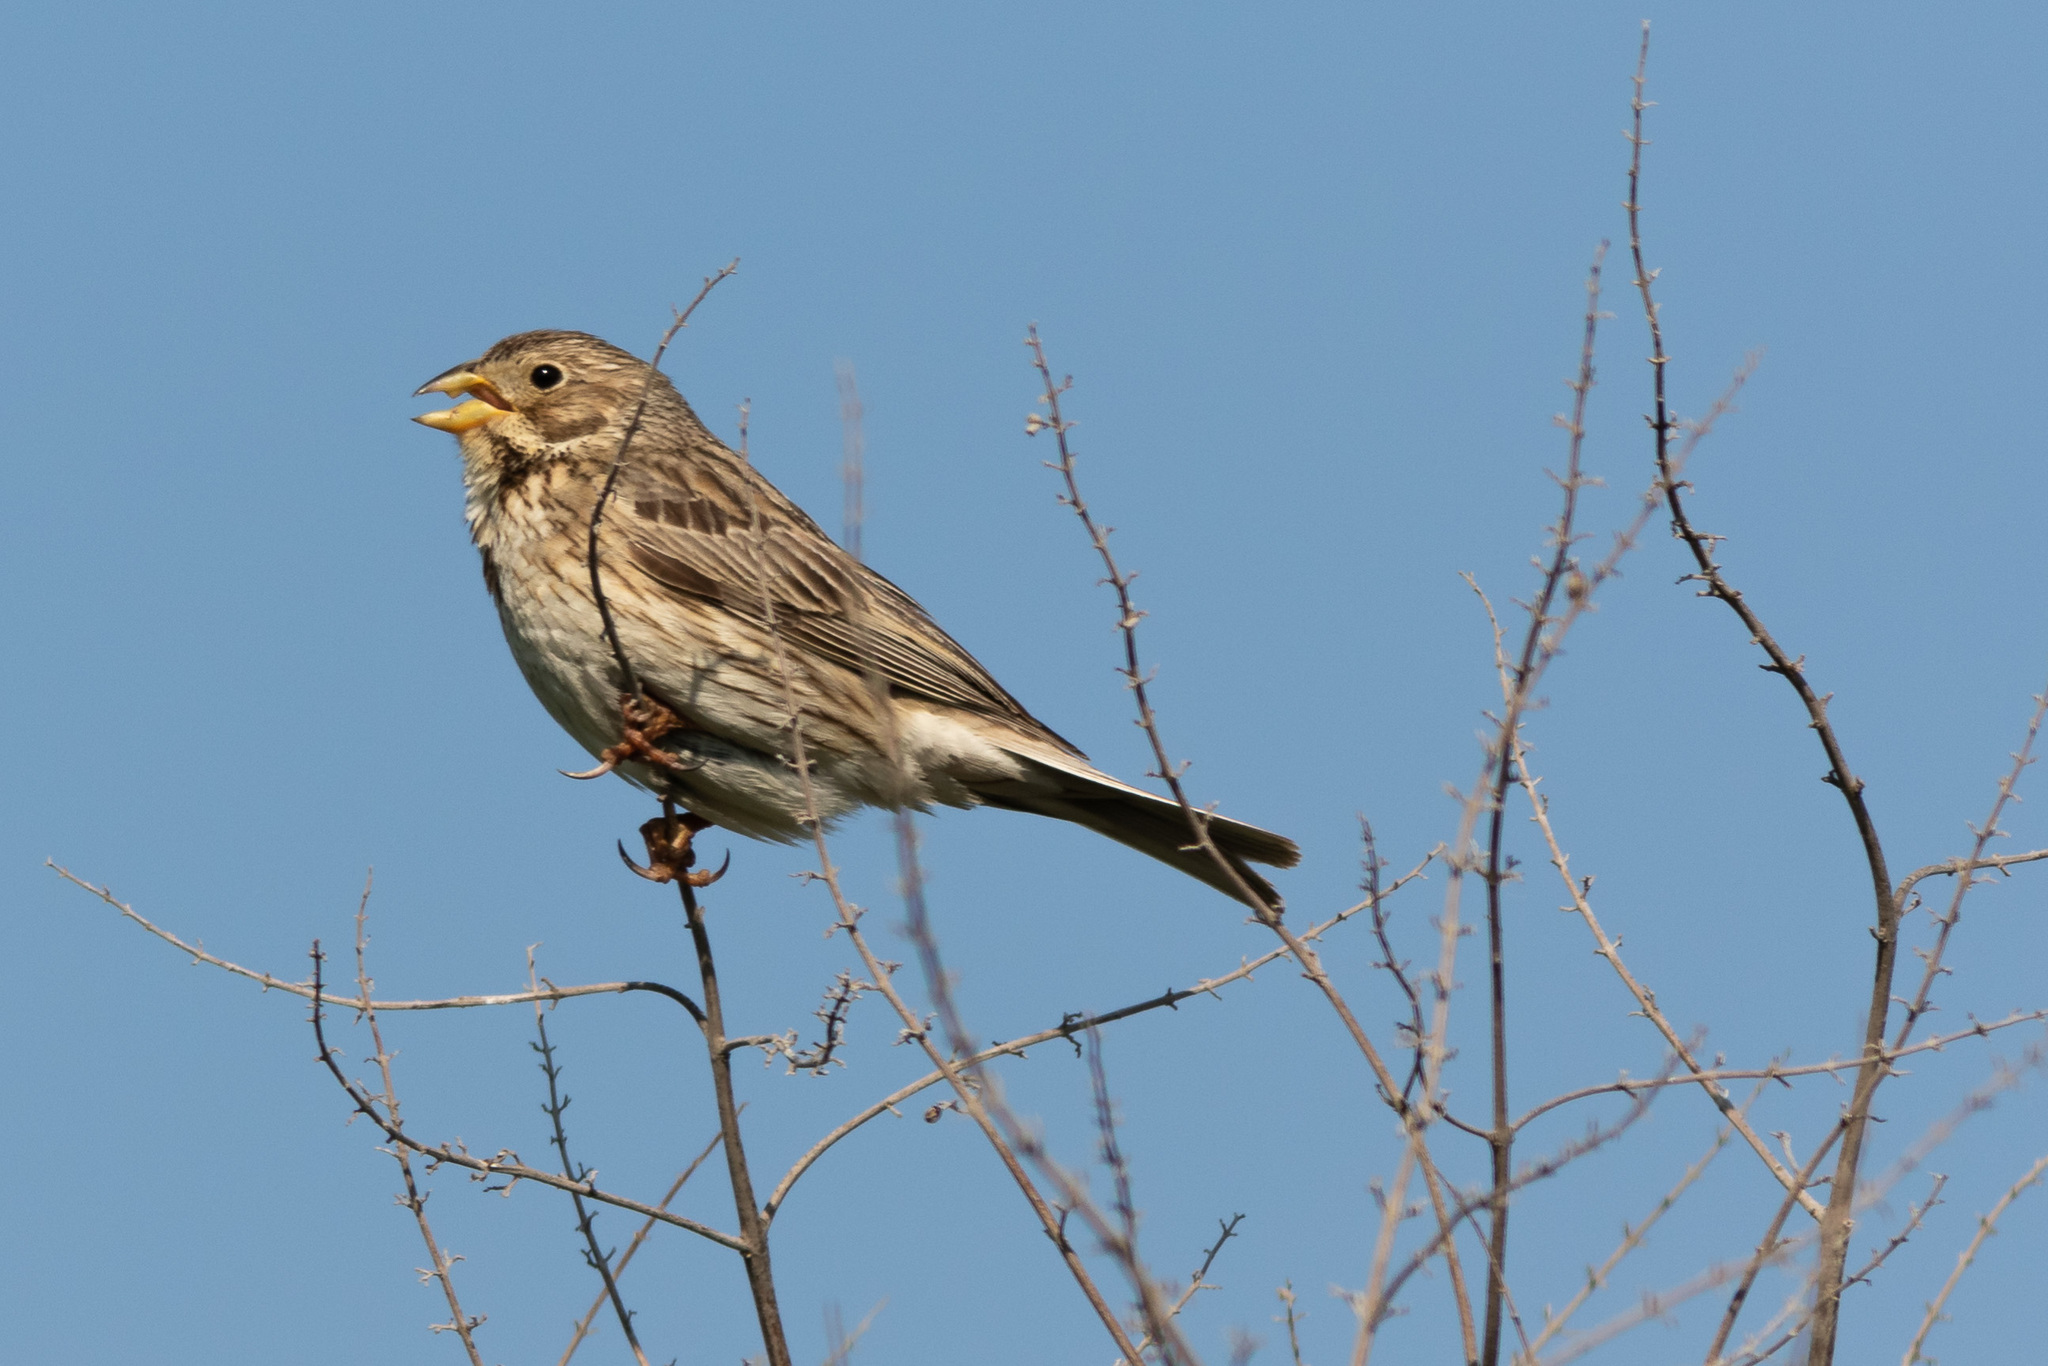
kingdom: Animalia
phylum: Chordata
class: Aves
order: Passeriformes
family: Emberizidae
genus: Emberiza
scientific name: Emberiza calandra
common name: Corn bunting
